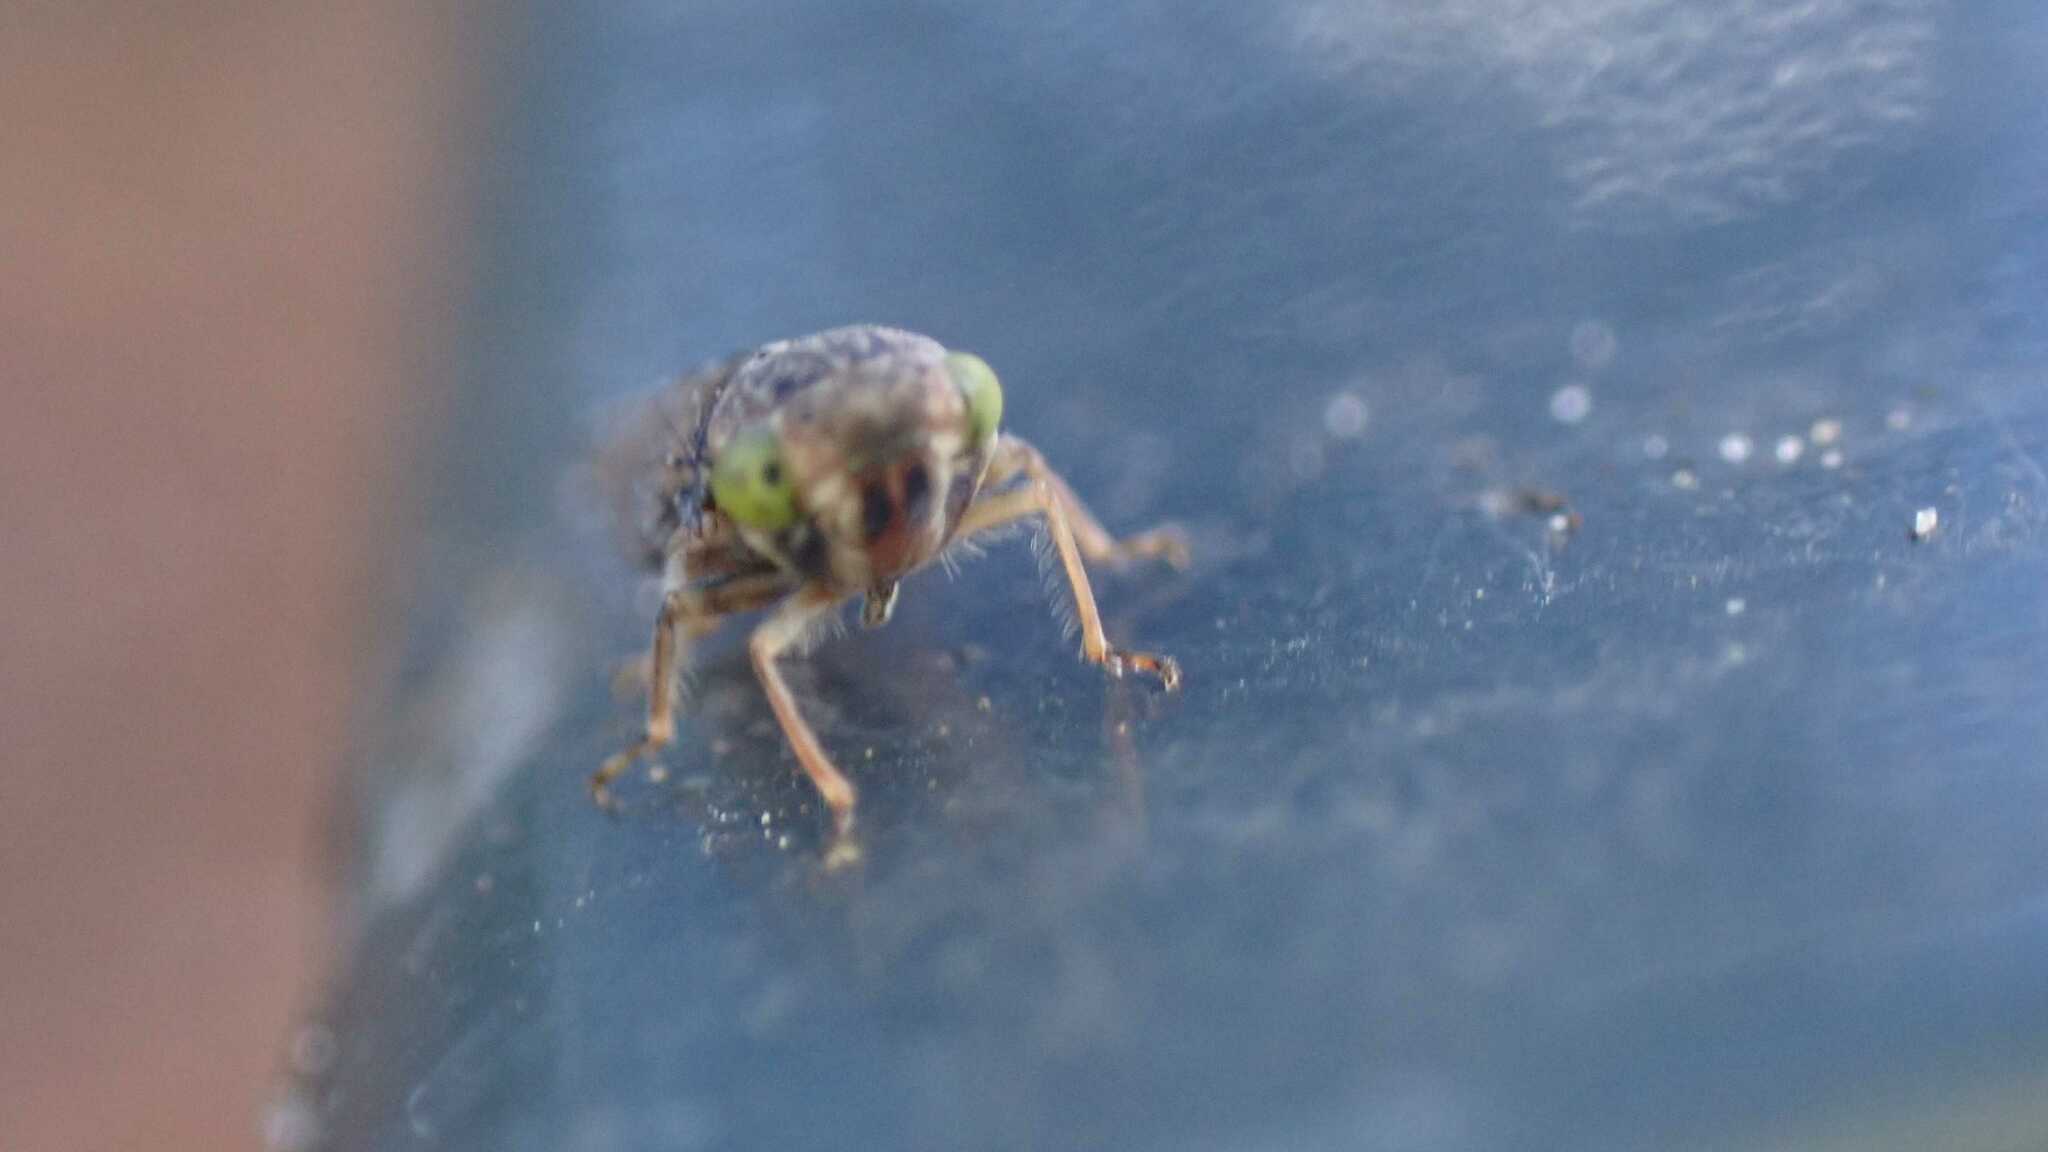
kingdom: Animalia
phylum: Arthropoda
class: Insecta
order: Hemiptera
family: Cicadellidae
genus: Acericerus
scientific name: Acericerus ribauti
